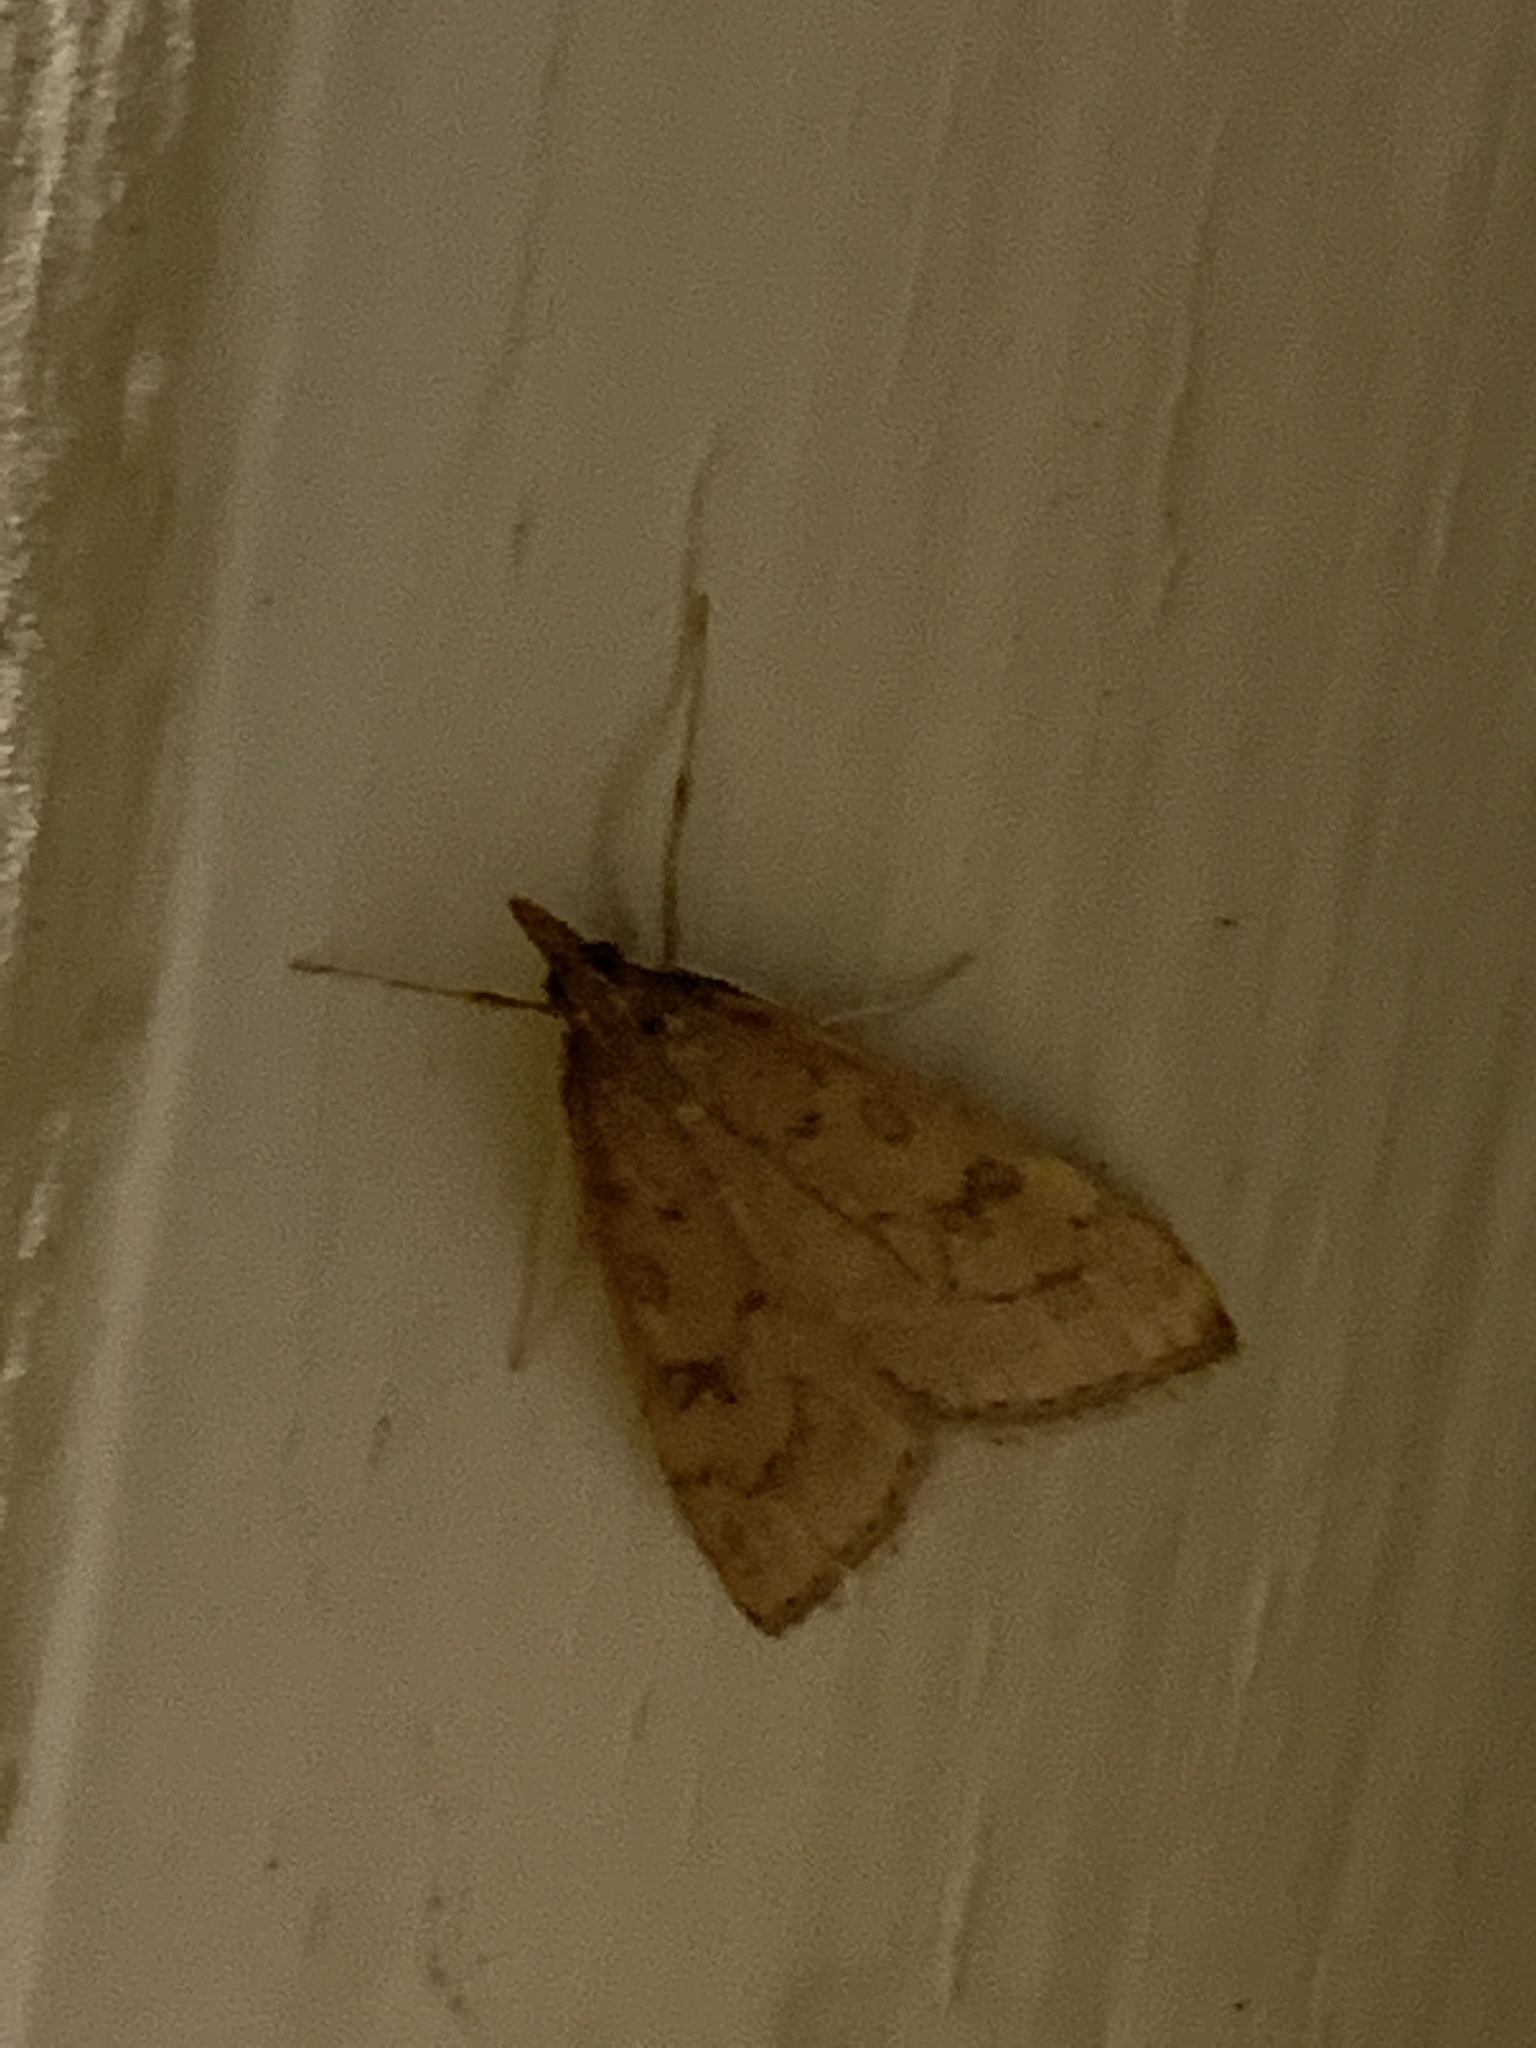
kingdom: Animalia
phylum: Arthropoda
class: Insecta
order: Lepidoptera
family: Crambidae
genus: Udea
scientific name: Udea rubigalis
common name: Celery leaftier moth
